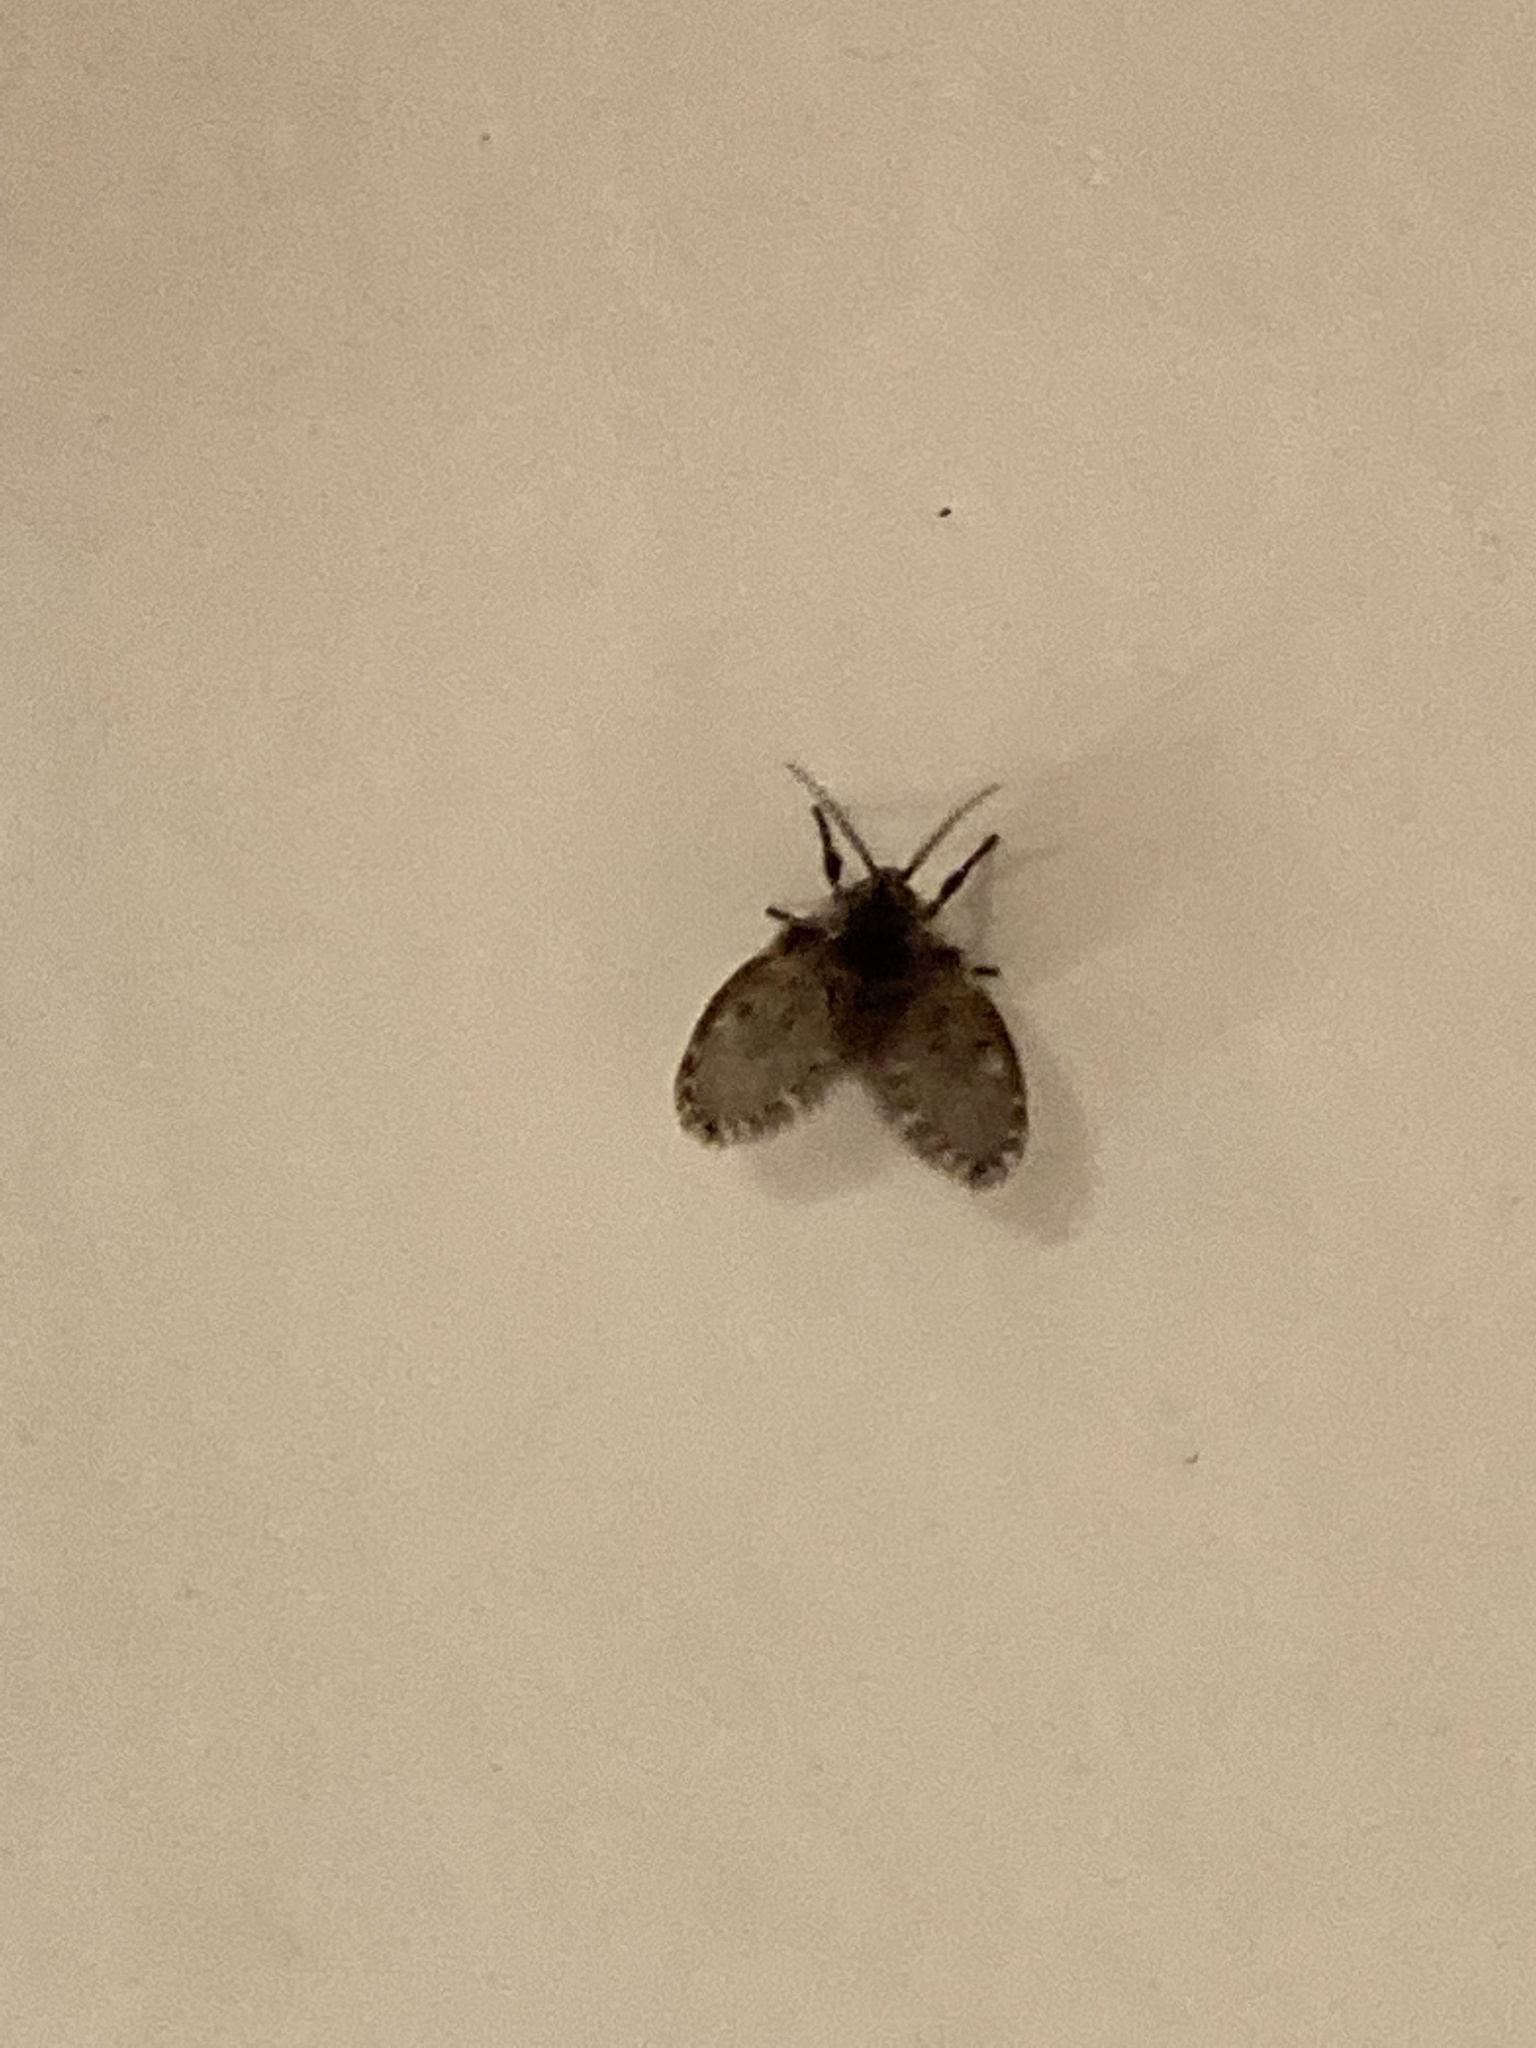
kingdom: Animalia
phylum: Arthropoda
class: Insecta
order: Diptera
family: Psychodidae
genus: Clogmia
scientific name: Clogmia albipunctatus
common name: White-spotted moth fly
